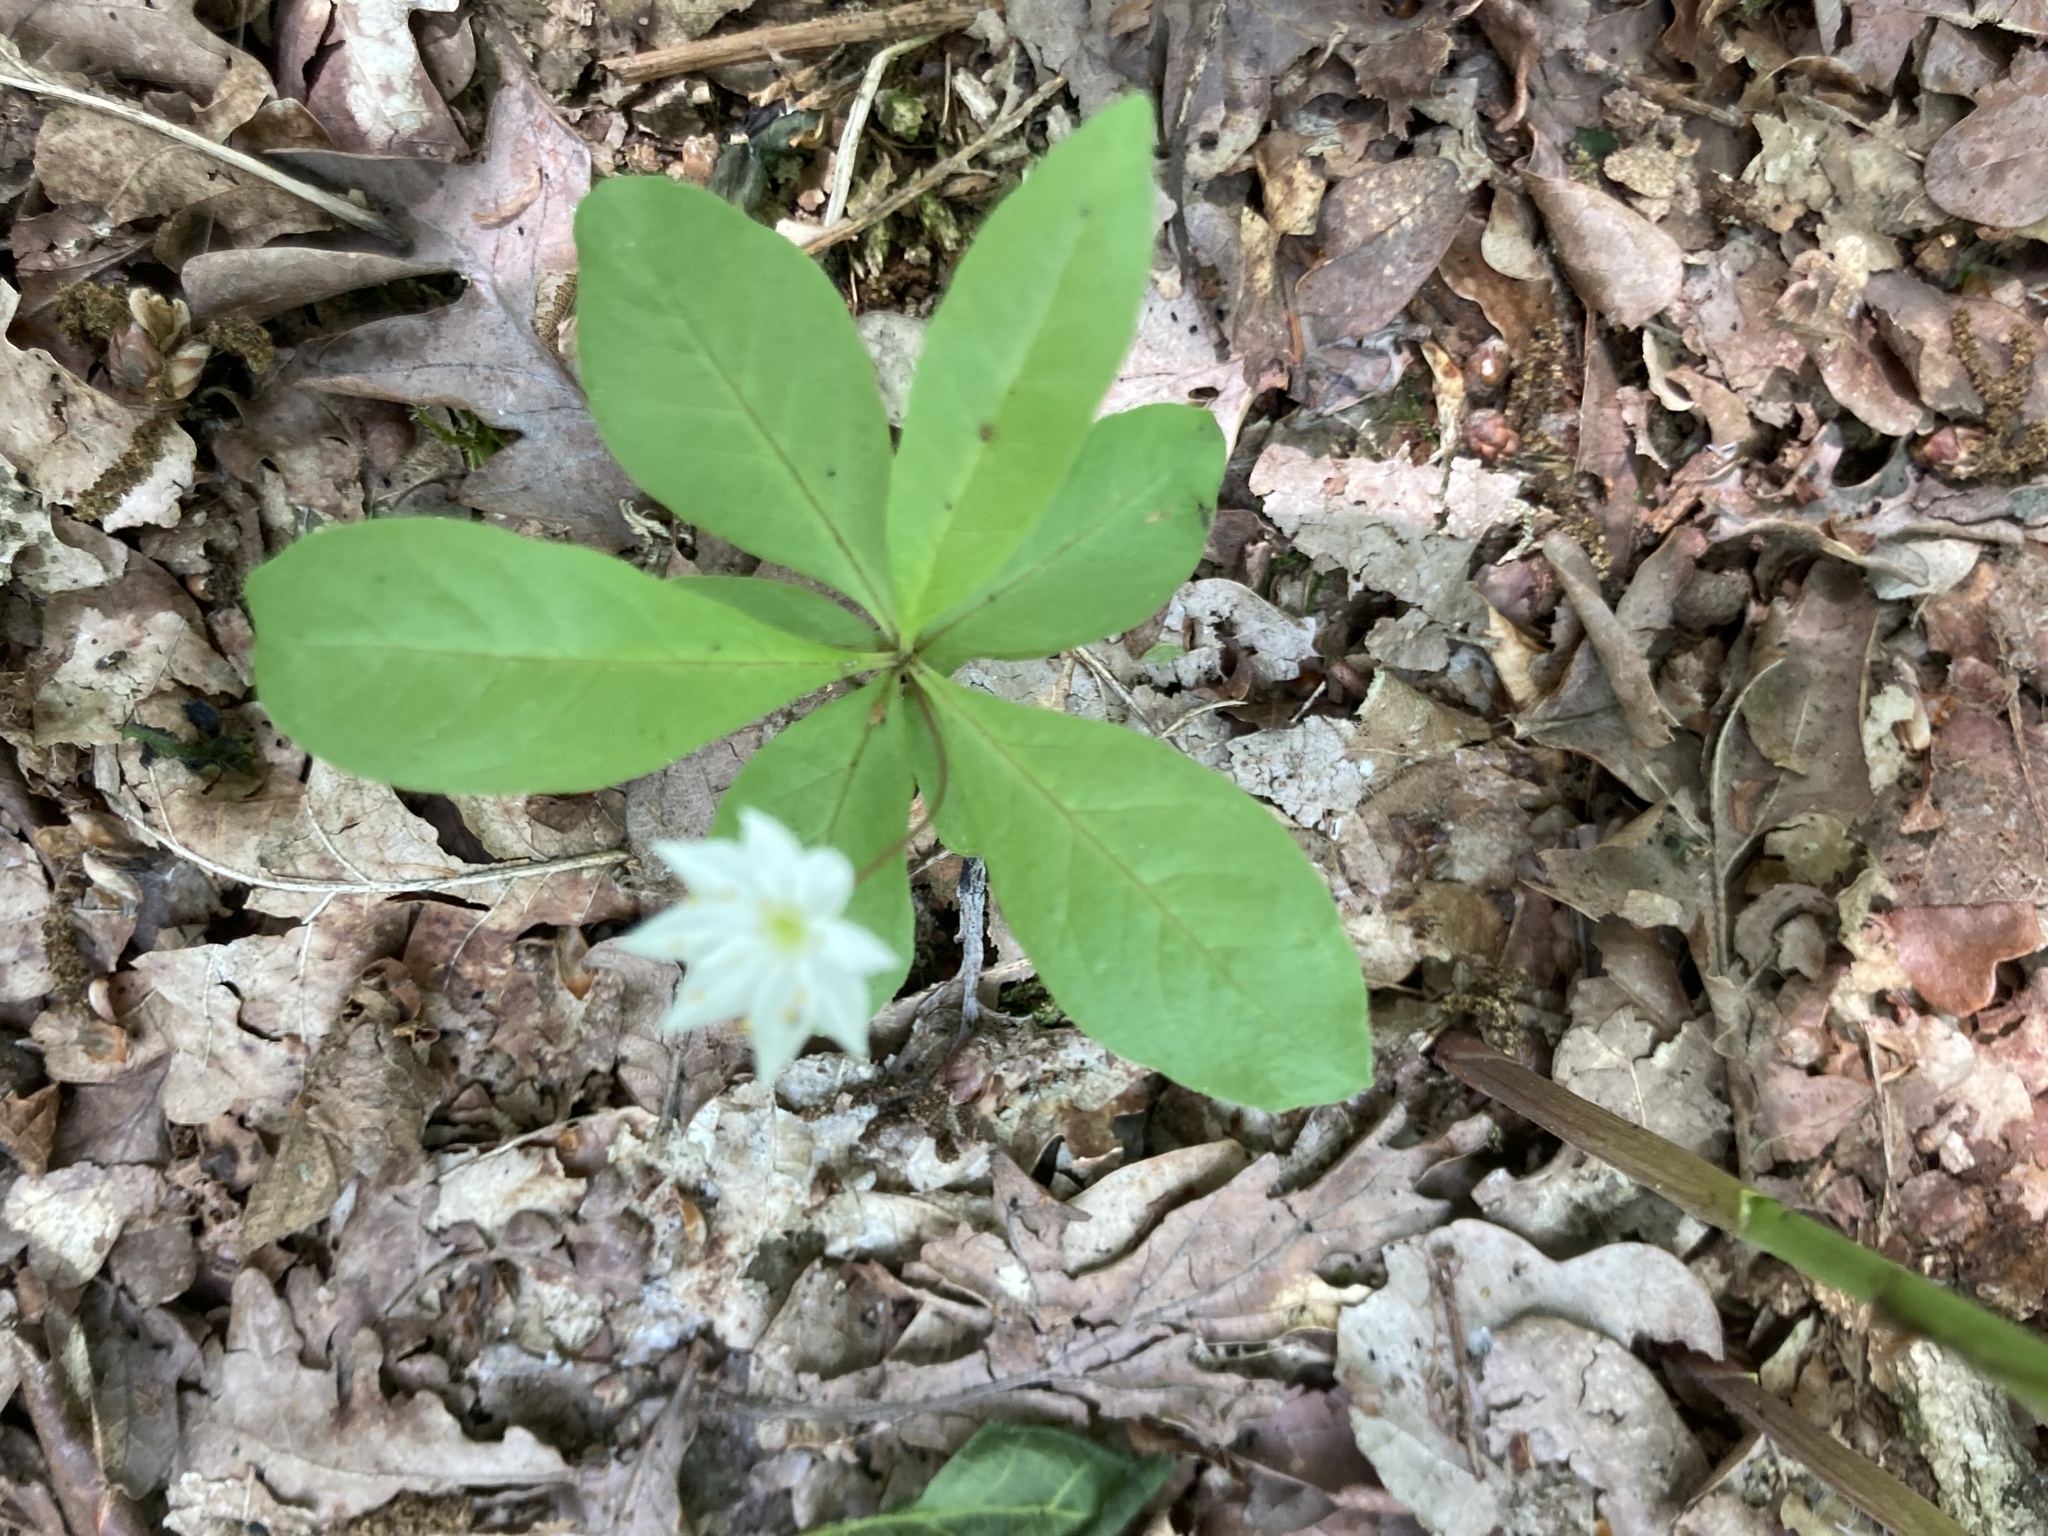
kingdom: Plantae
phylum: Tracheophyta
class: Magnoliopsida
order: Ericales
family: Primulaceae
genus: Lysimachia
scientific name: Lysimachia europaea
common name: Arctic starflower
